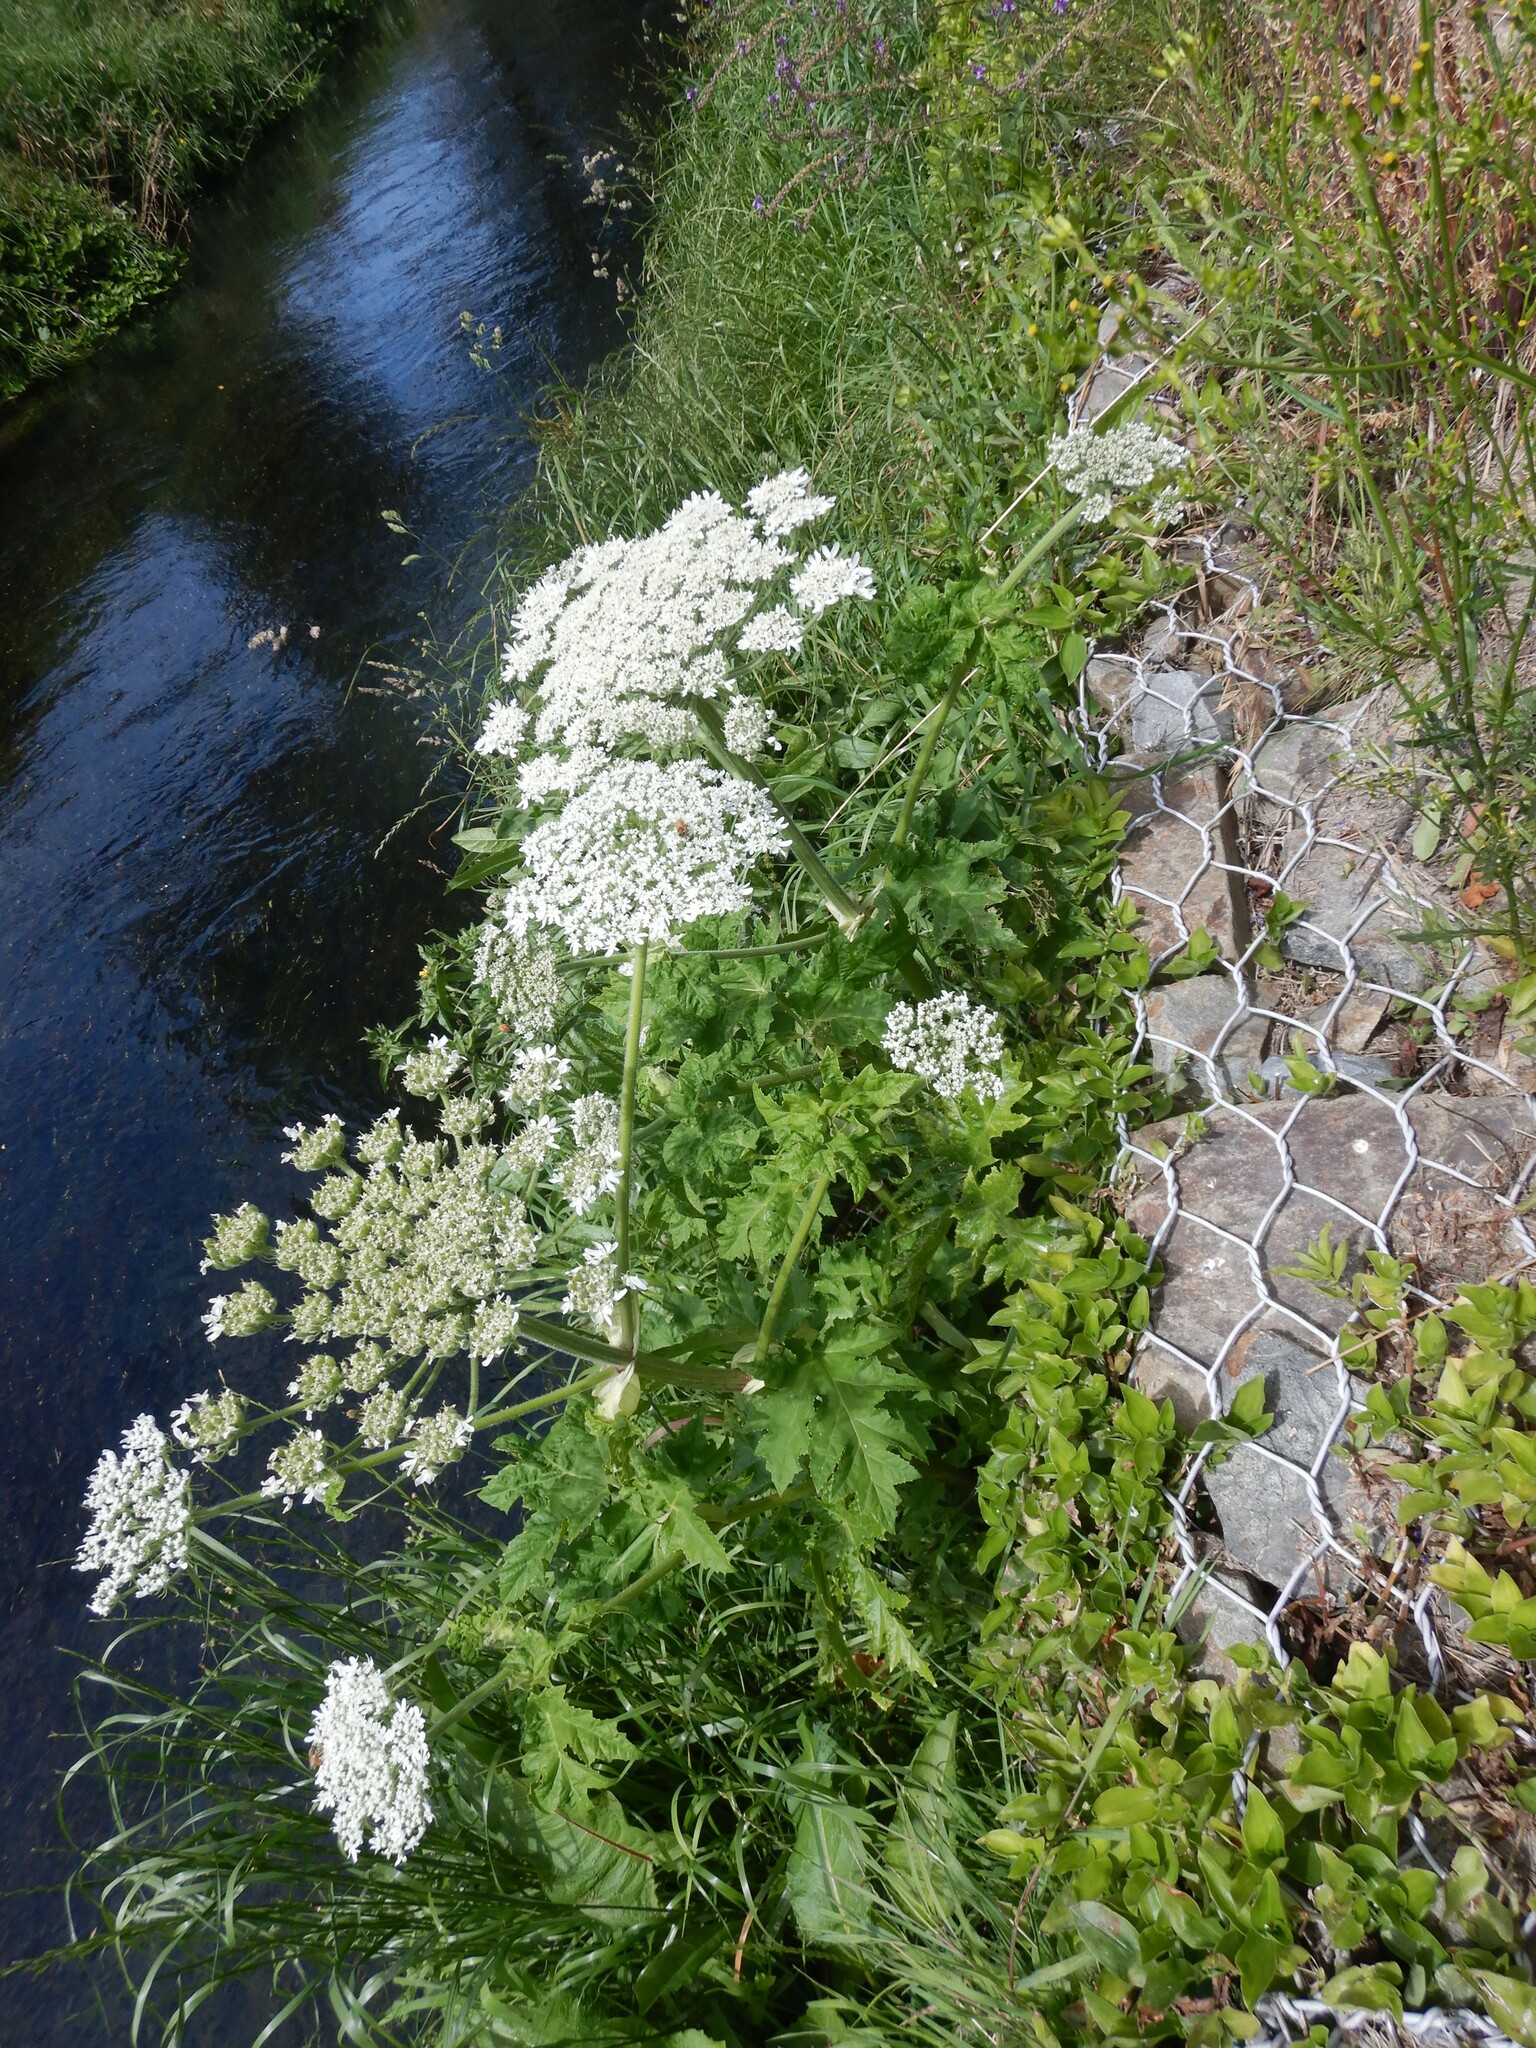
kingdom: Plantae
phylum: Tracheophyta
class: Magnoliopsida
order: Apiales
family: Apiaceae
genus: Heracleum
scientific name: Heracleum mantegazzianum
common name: Giant hogweed
